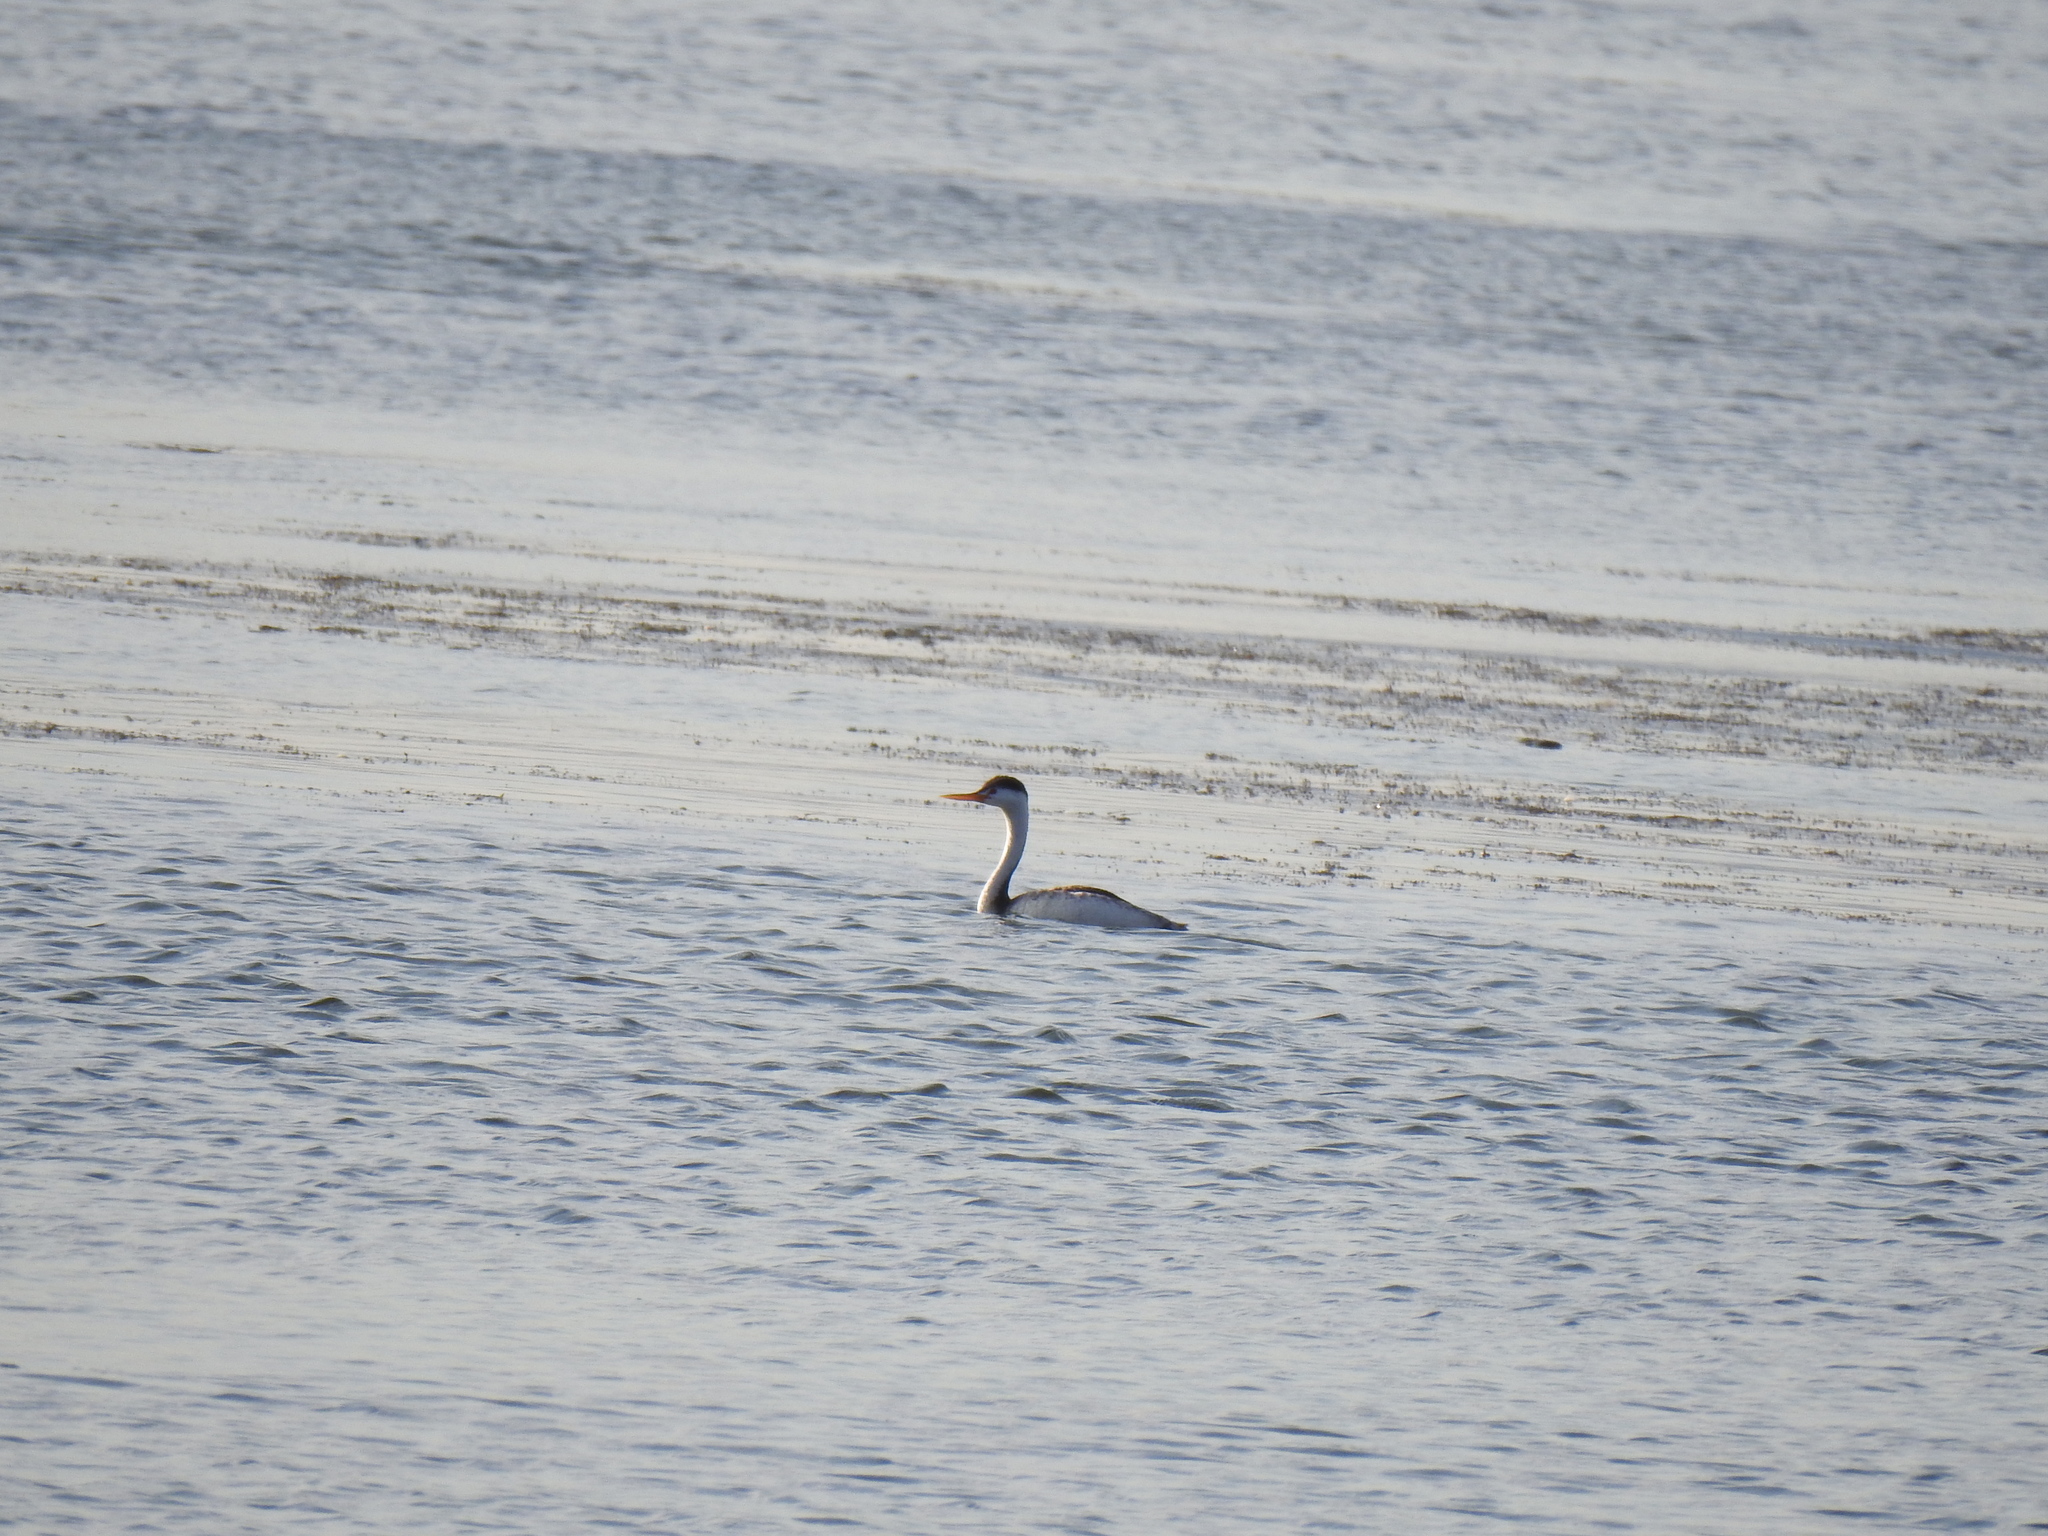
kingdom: Animalia
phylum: Chordata
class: Aves
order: Podicipediformes
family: Podicipedidae
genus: Aechmophorus
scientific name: Aechmophorus clarkii
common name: Clark's grebe
